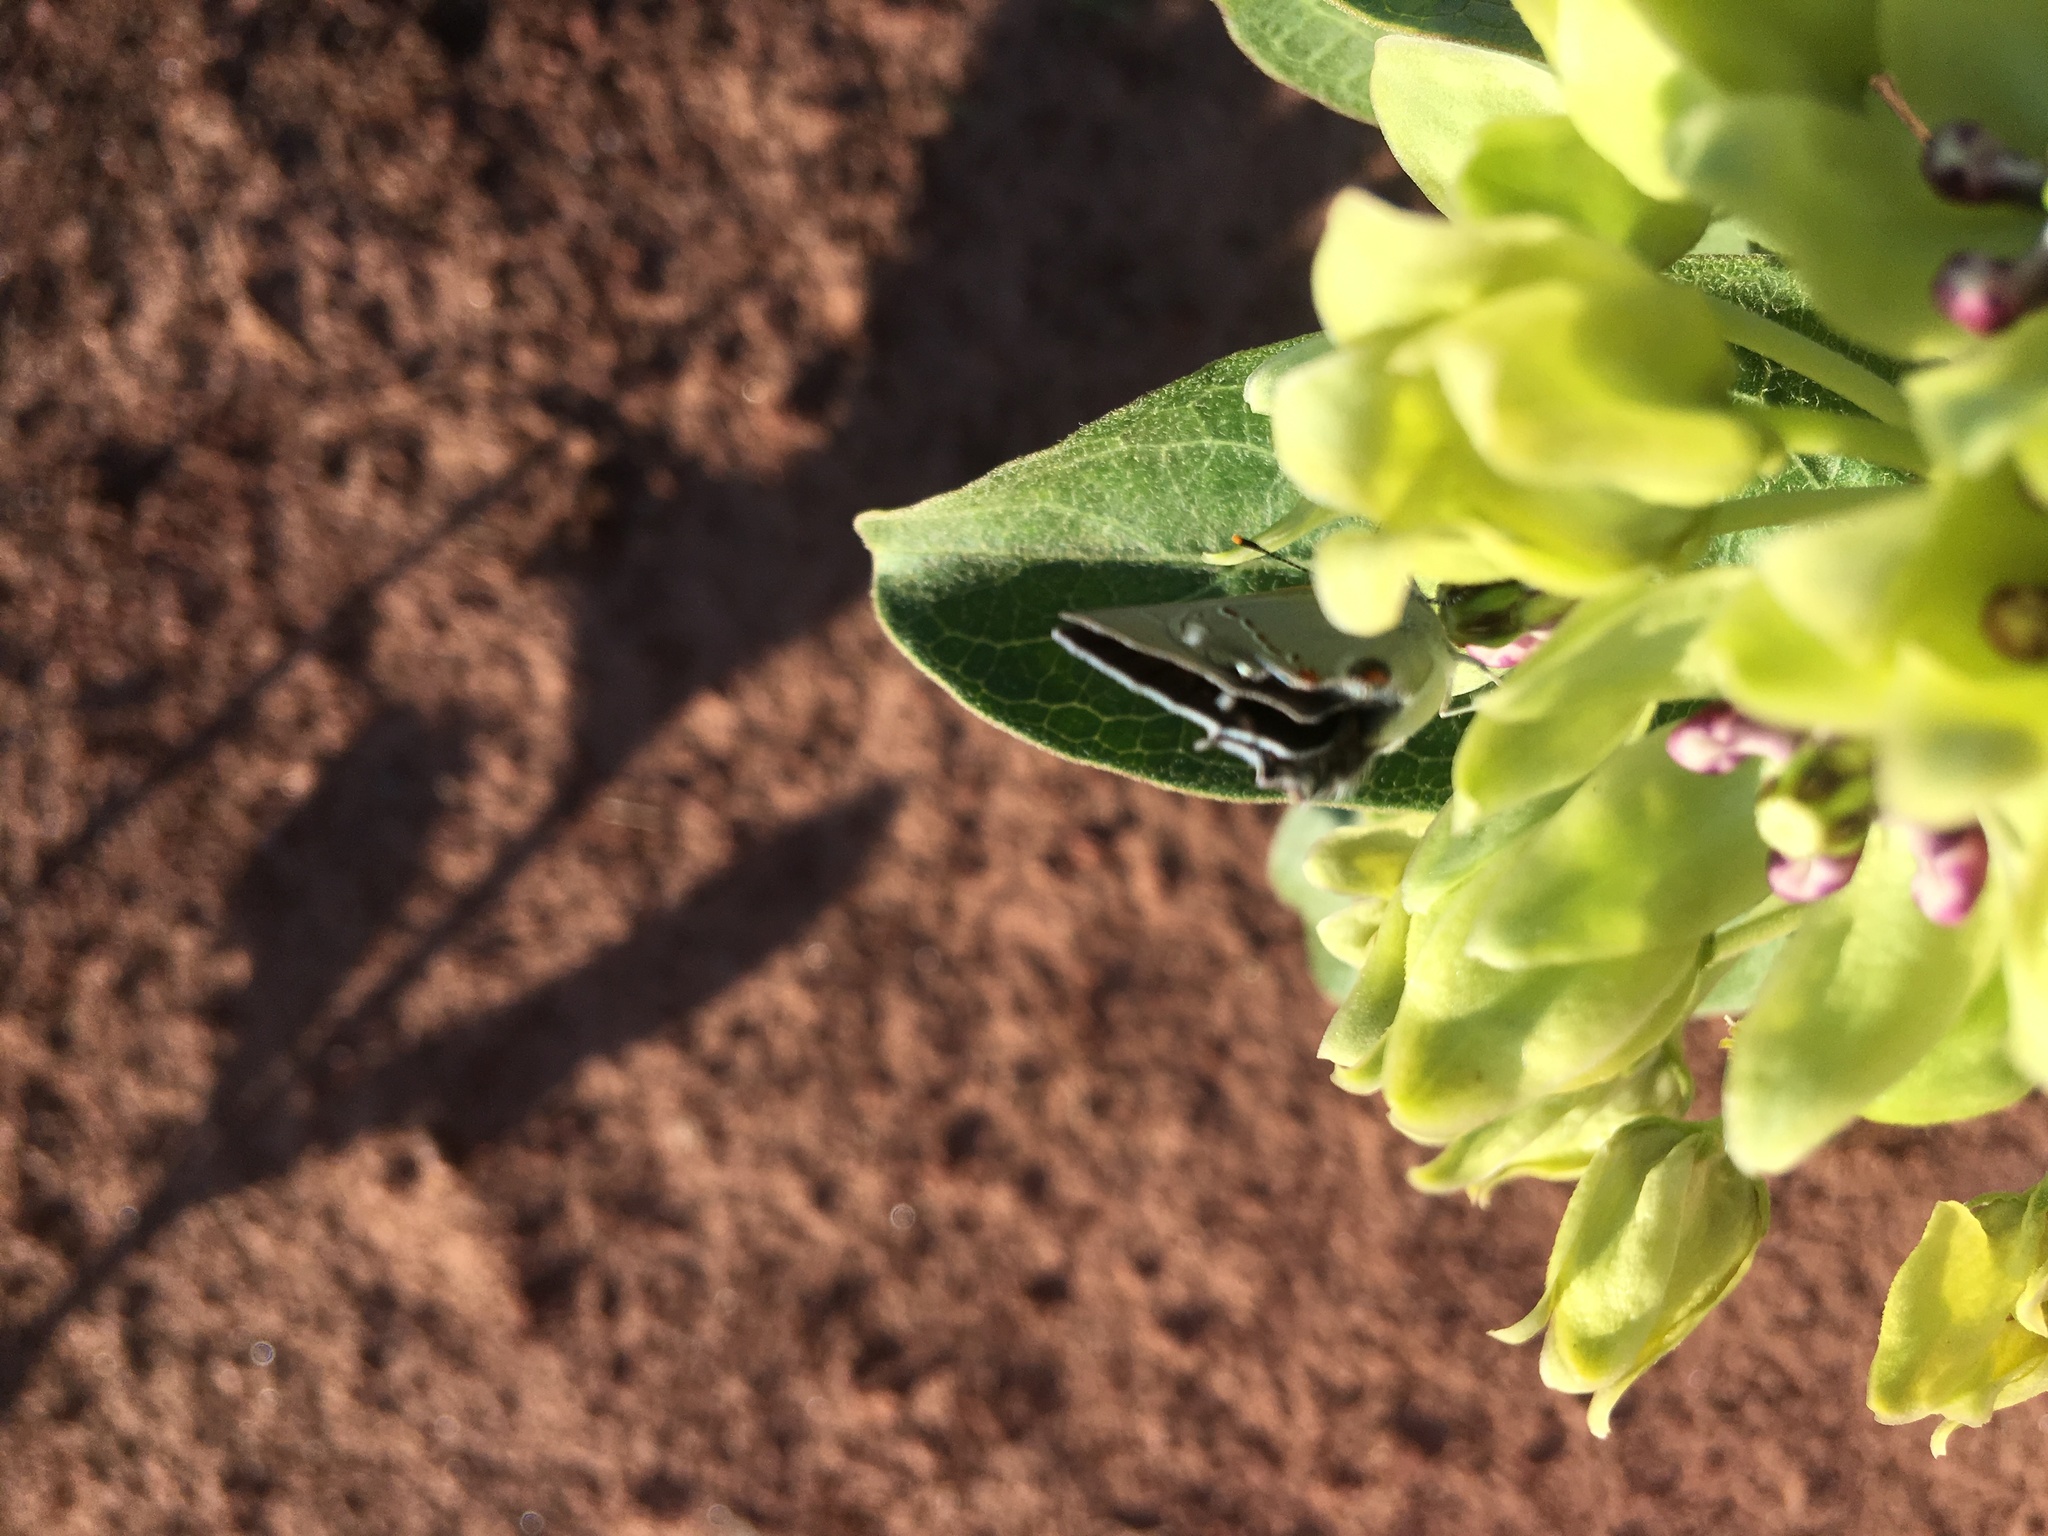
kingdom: Animalia
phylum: Arthropoda
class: Insecta
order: Lepidoptera
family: Lycaenidae
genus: Strymon
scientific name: Strymon melinus
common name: Gray hairstreak
